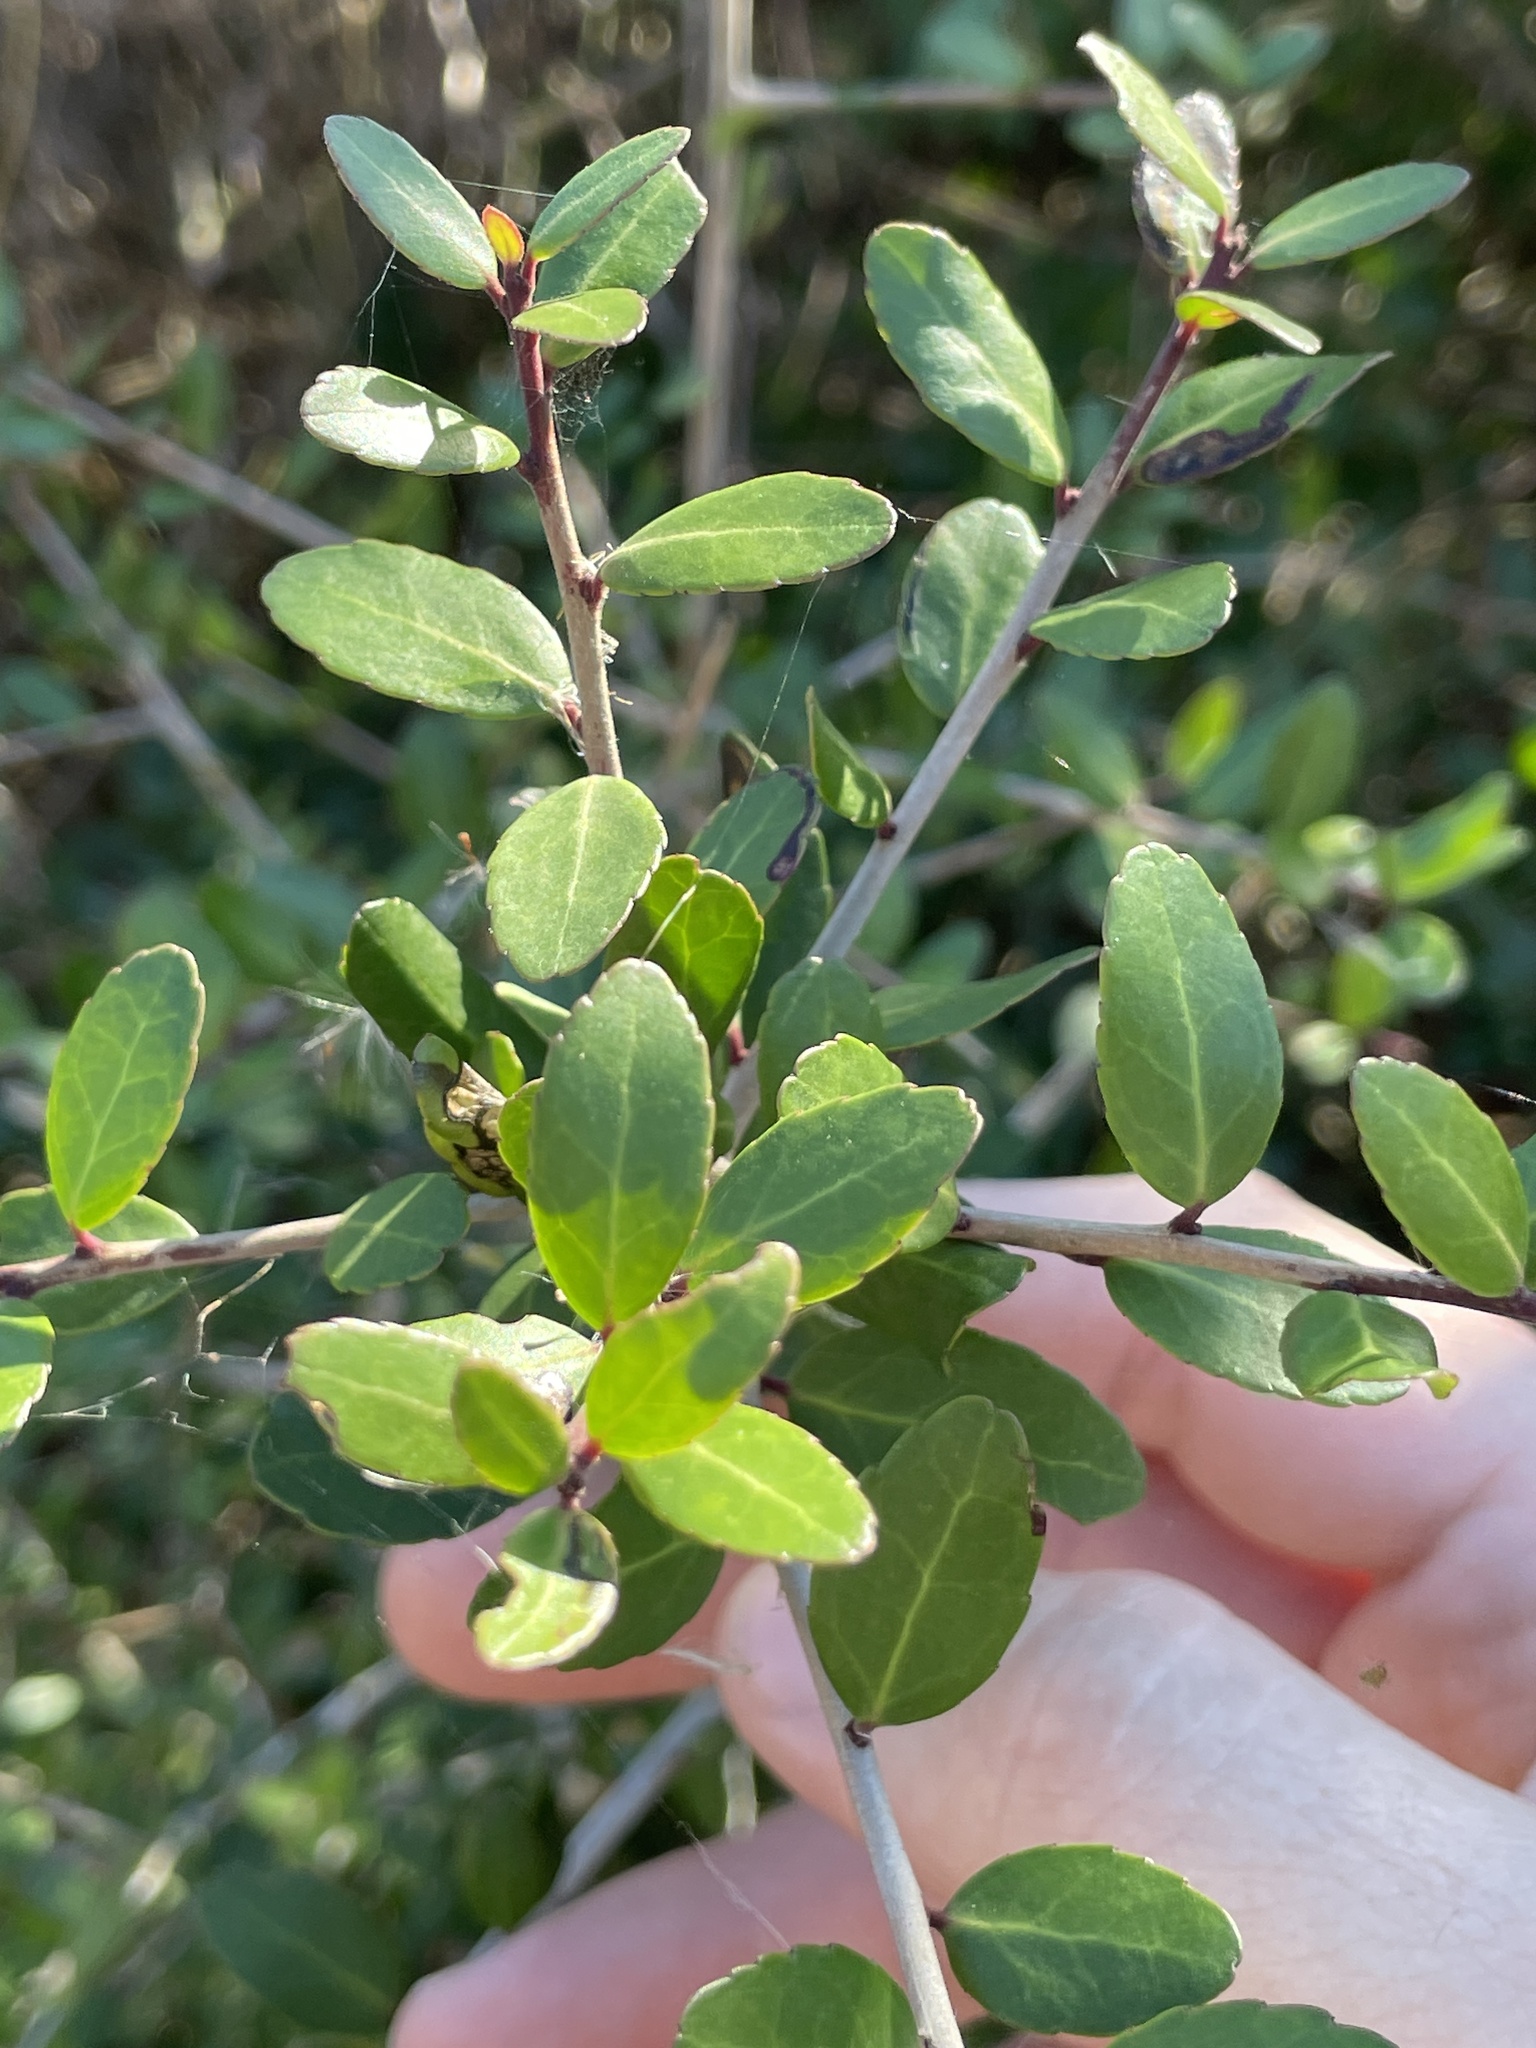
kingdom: Plantae
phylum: Tracheophyta
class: Magnoliopsida
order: Aquifoliales
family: Aquifoliaceae
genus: Ilex
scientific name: Ilex vomitoria
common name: Yaupon holly
